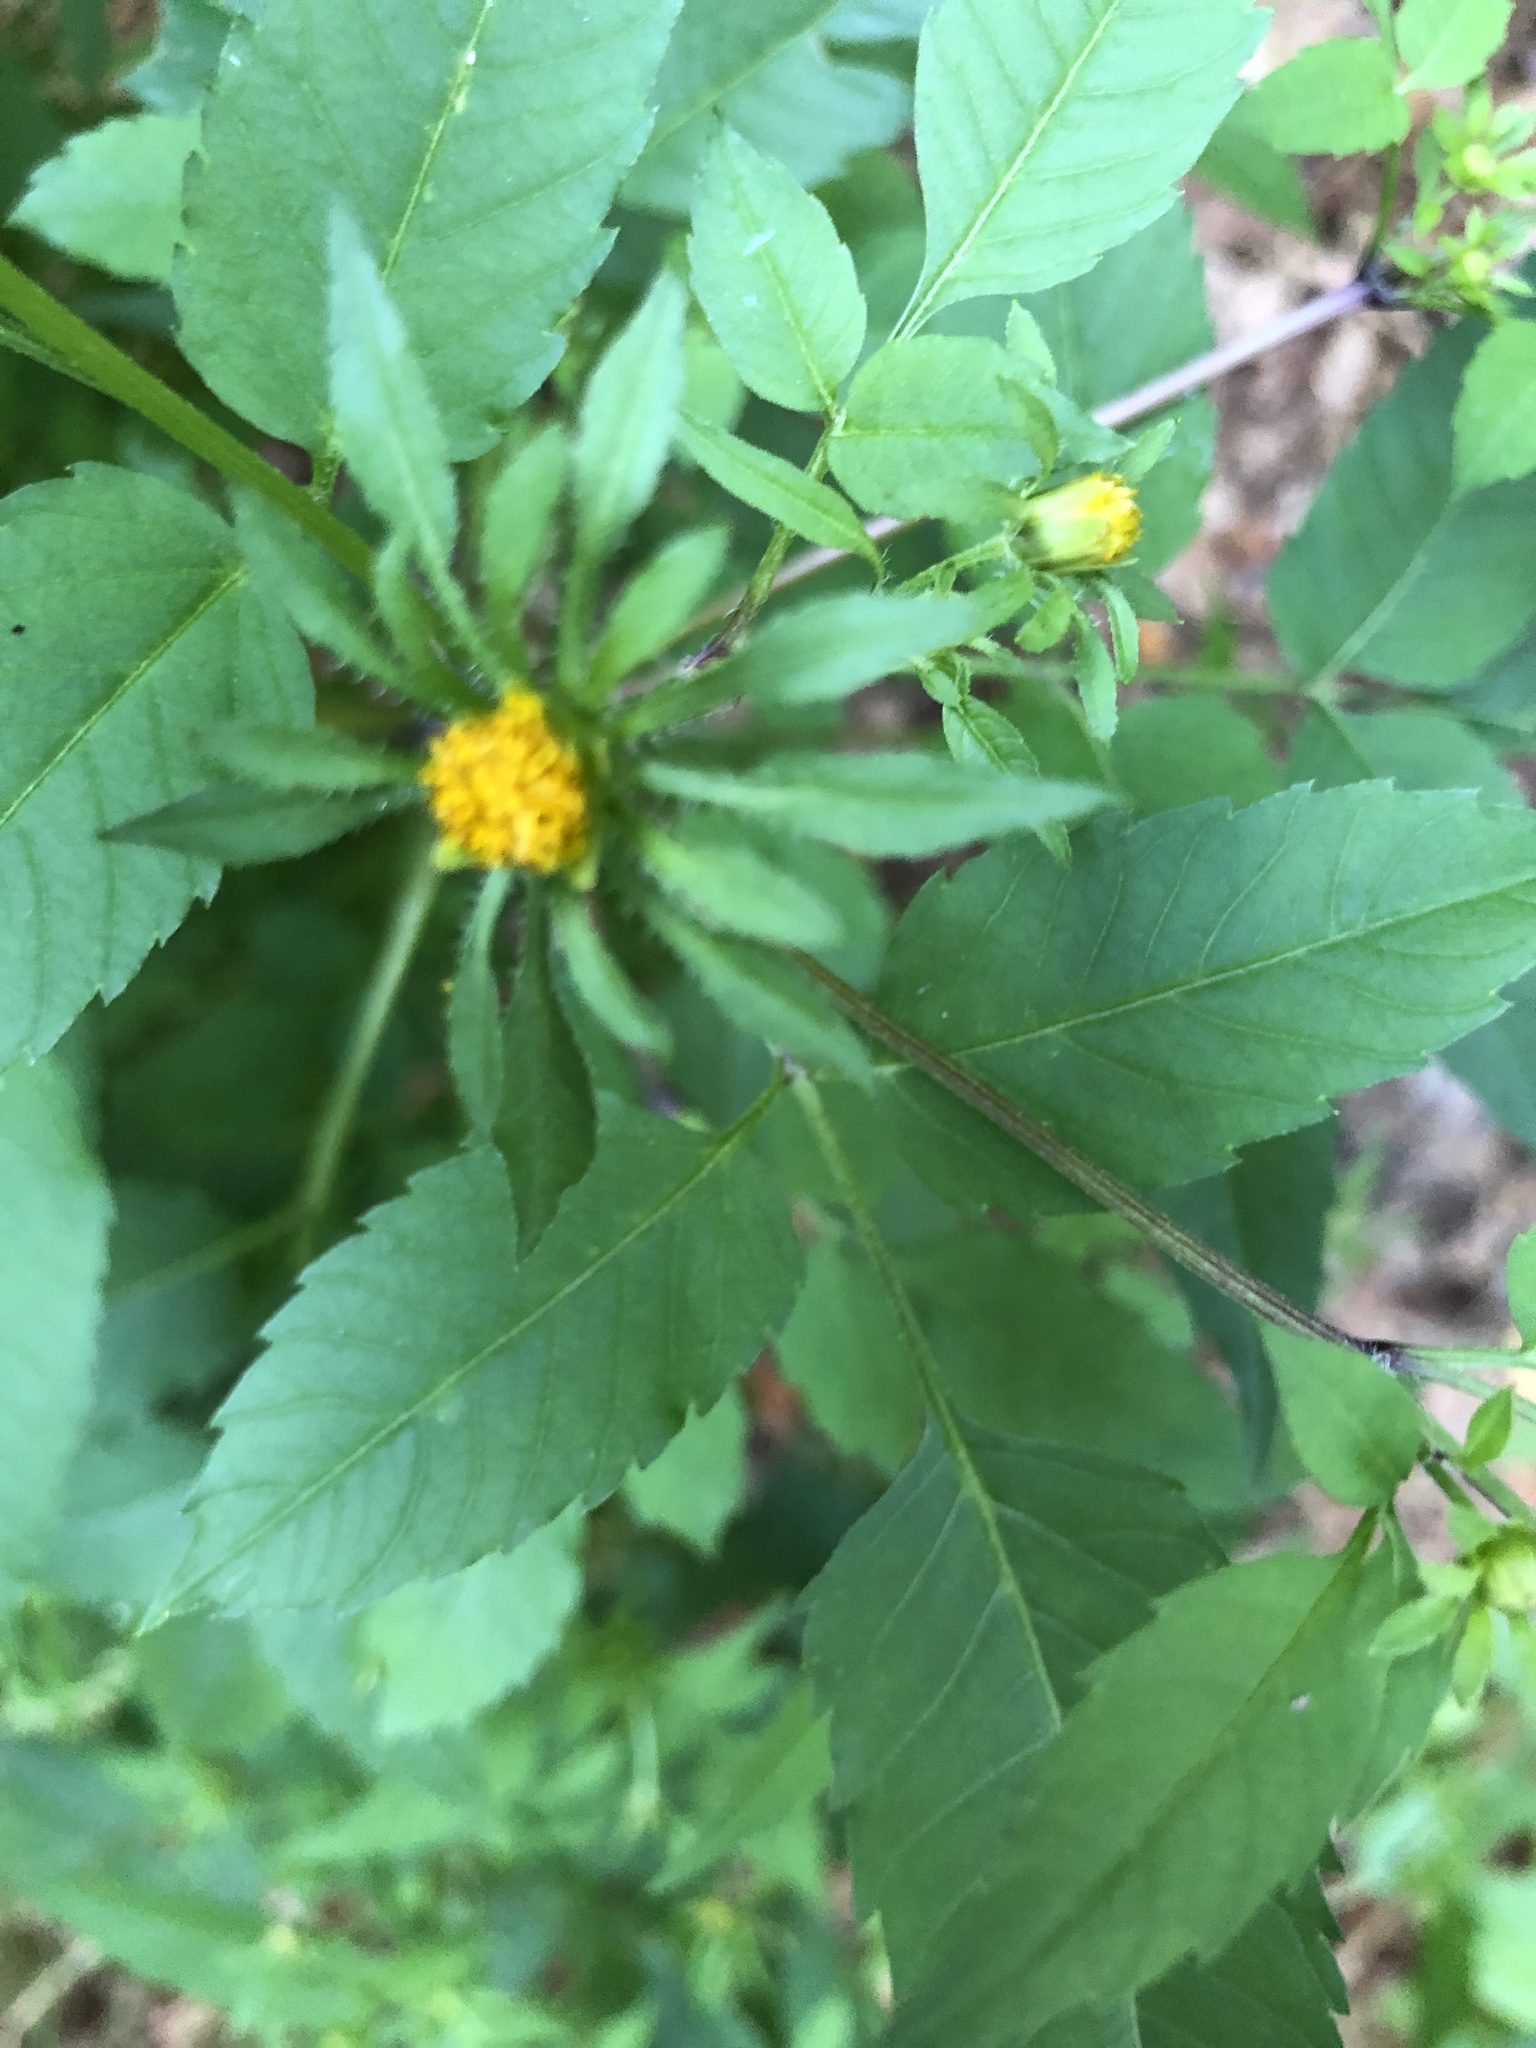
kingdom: Plantae
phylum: Tracheophyta
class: Magnoliopsida
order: Asterales
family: Asteraceae
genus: Bidens
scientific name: Bidens vulgata
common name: Tall beggarticks
